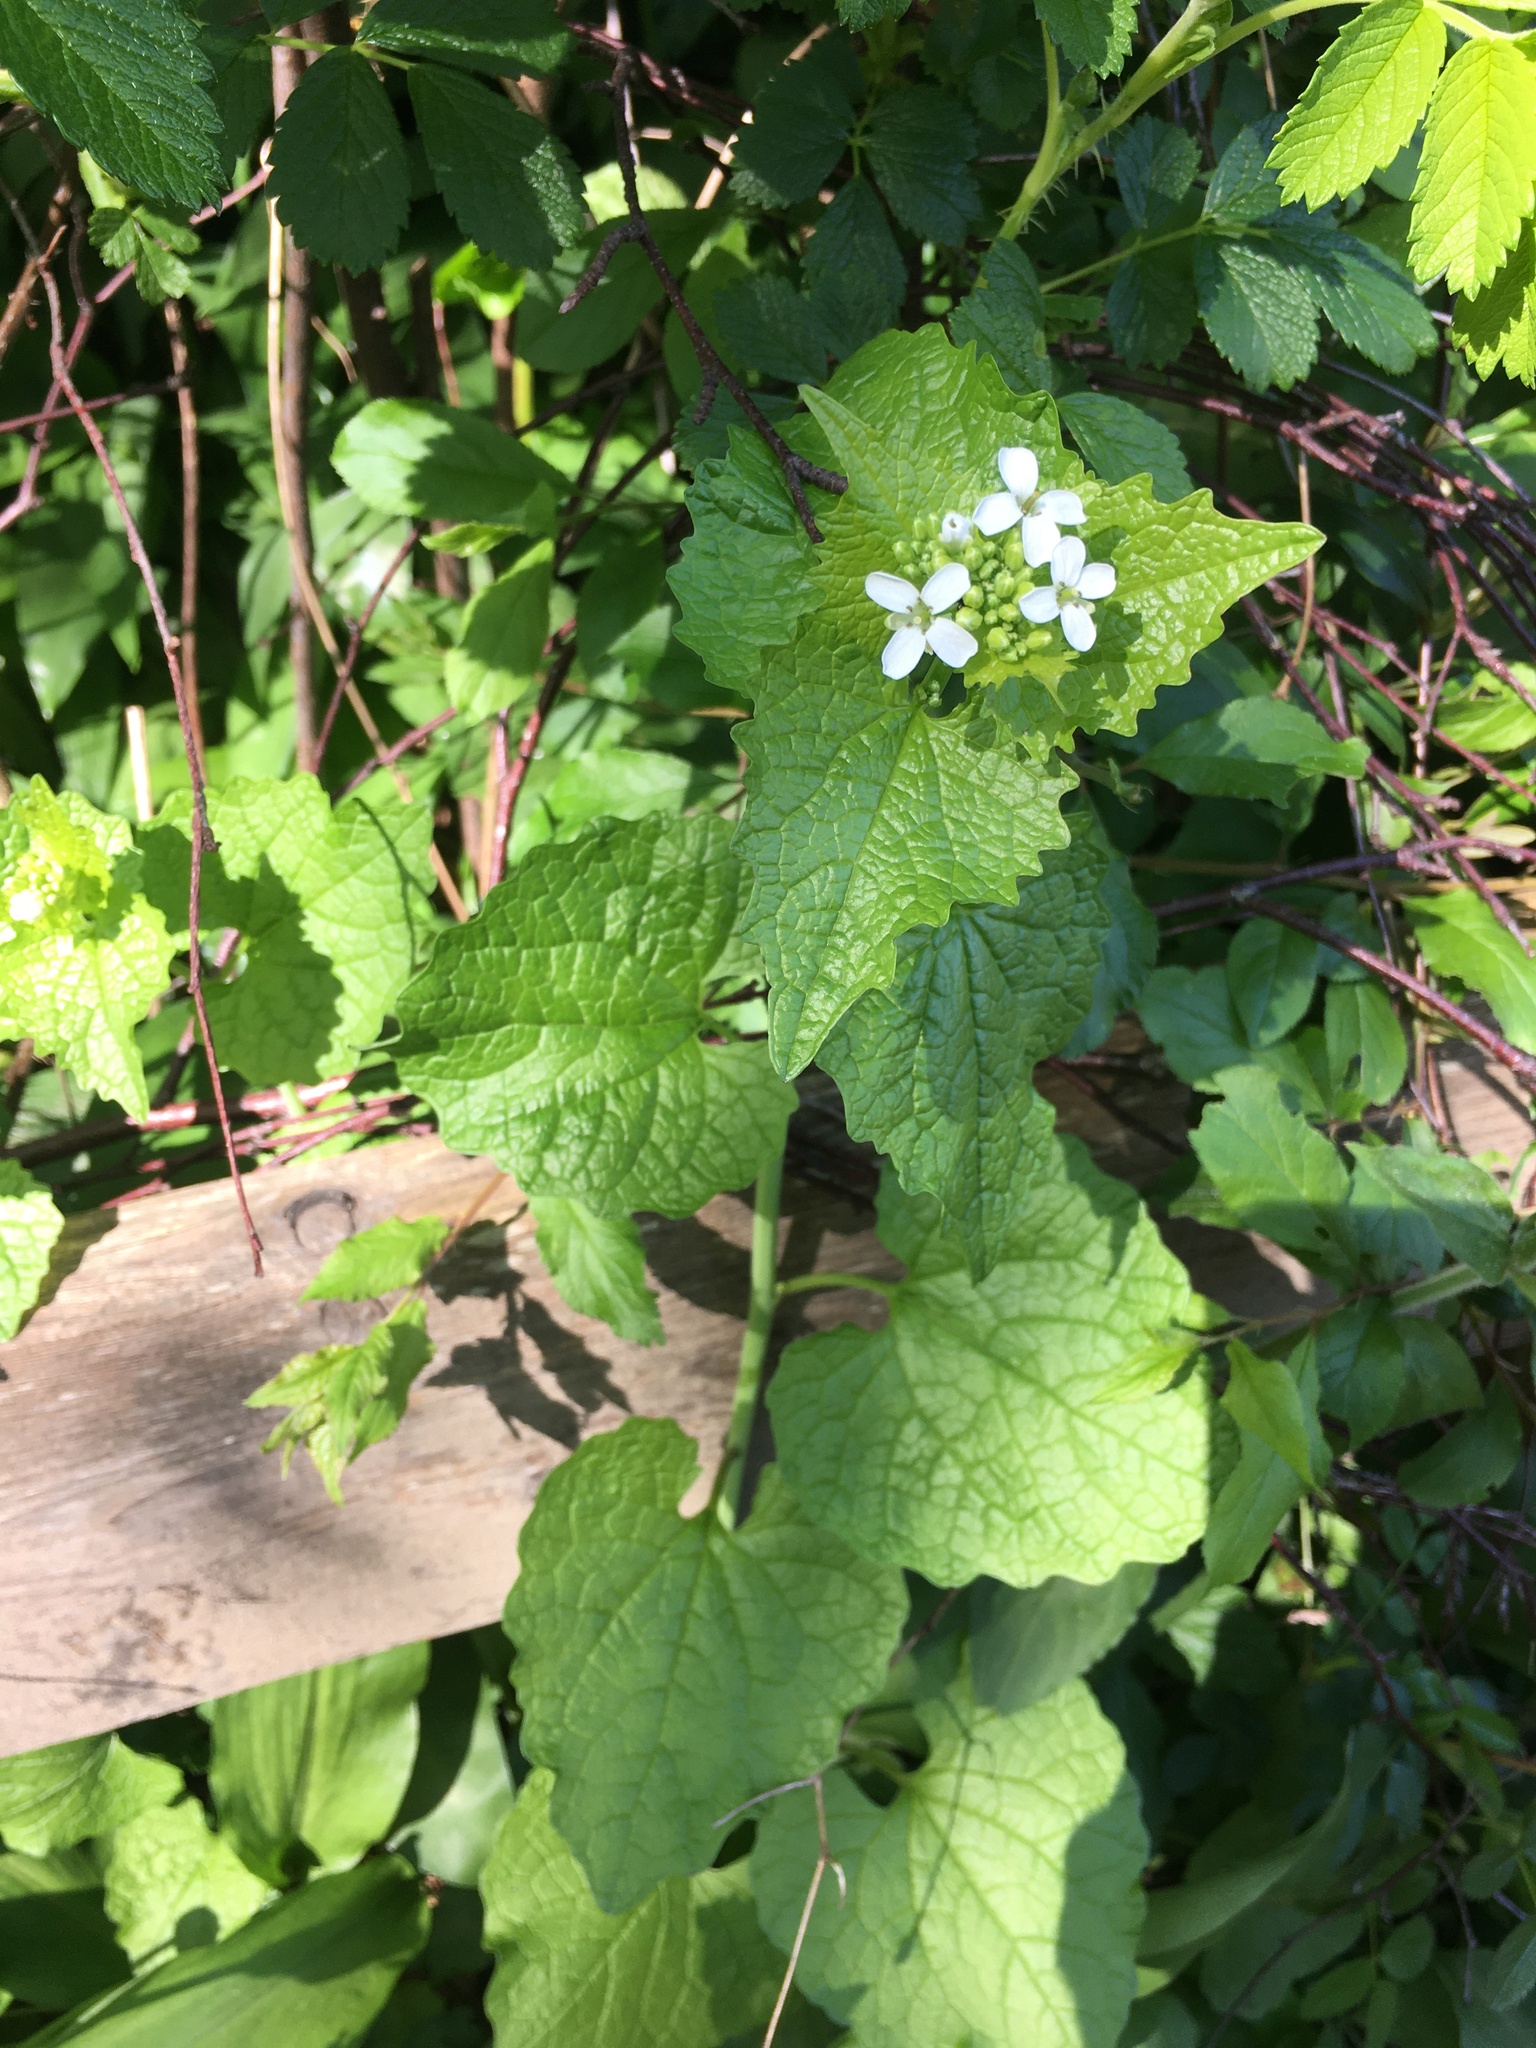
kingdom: Plantae
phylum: Tracheophyta
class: Magnoliopsida
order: Brassicales
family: Brassicaceae
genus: Alliaria
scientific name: Alliaria petiolata
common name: Garlic mustard
